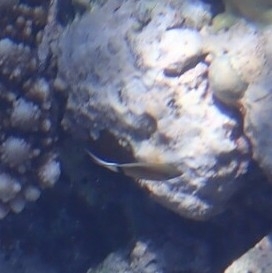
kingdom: Animalia
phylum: Chordata
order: Perciformes
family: Pomacentridae
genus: Plectroglyphidodon
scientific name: Plectroglyphidodon dickii
